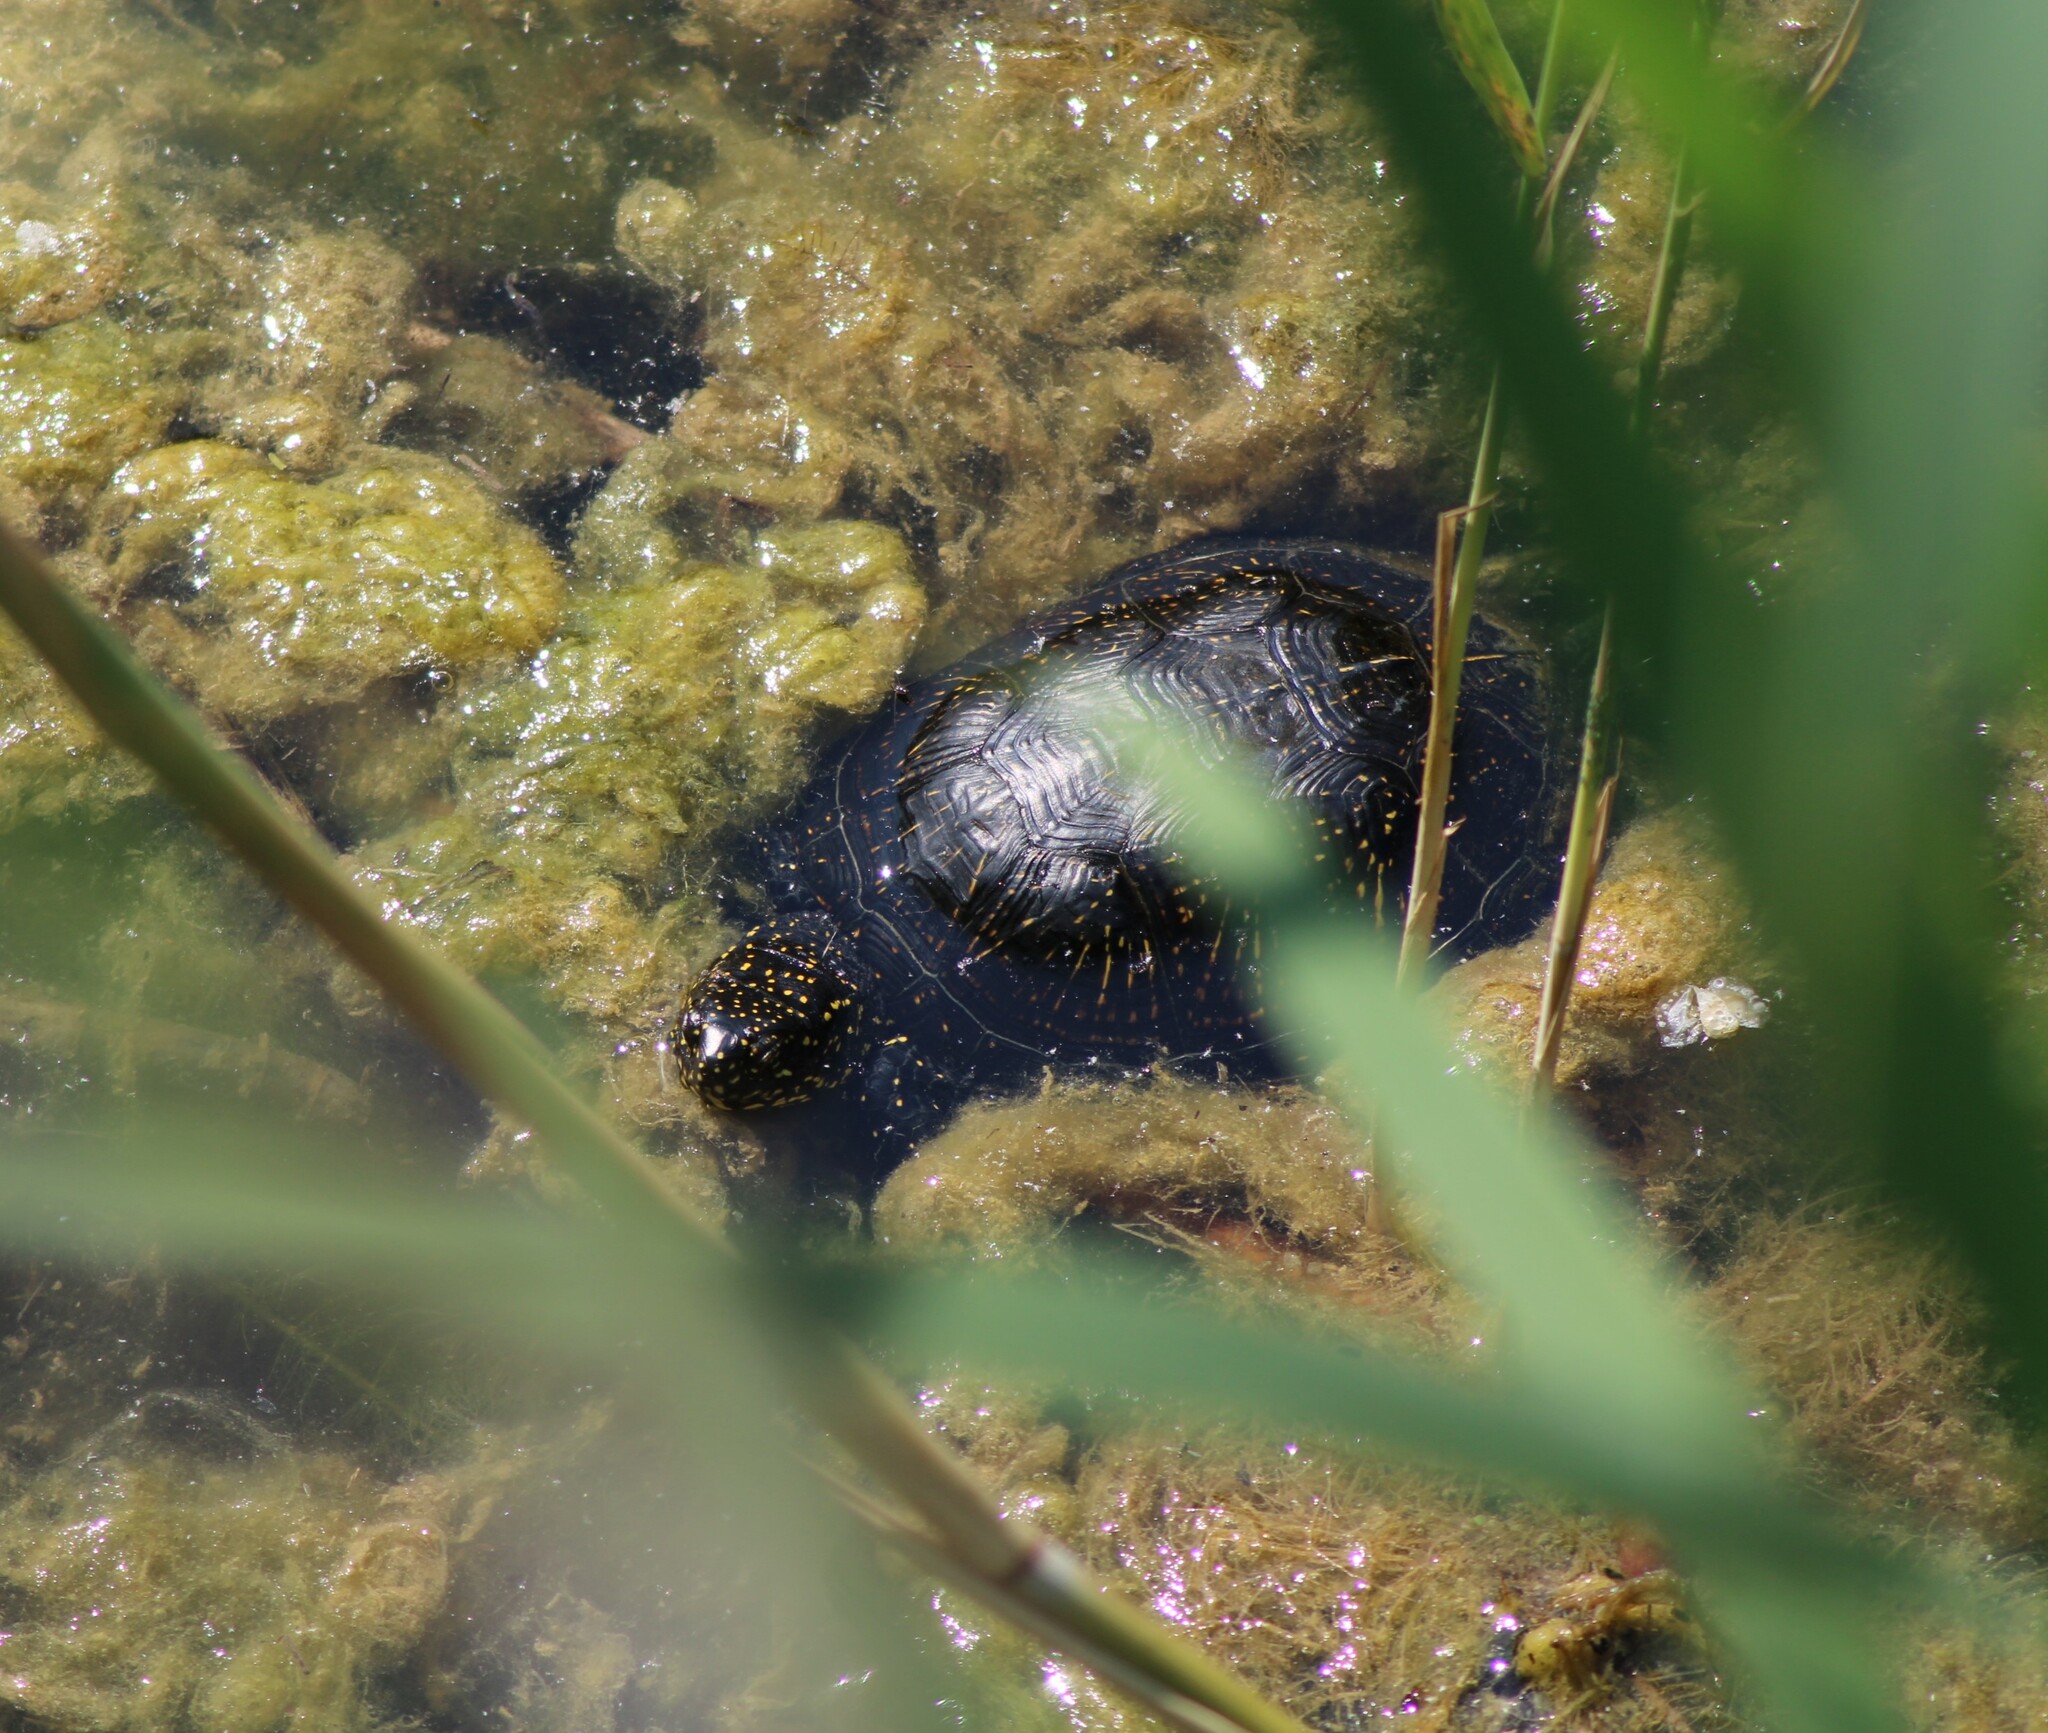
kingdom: Animalia
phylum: Chordata
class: Testudines
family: Emydidae
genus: Emys
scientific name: Emys orbicularis
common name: European pond turtle
